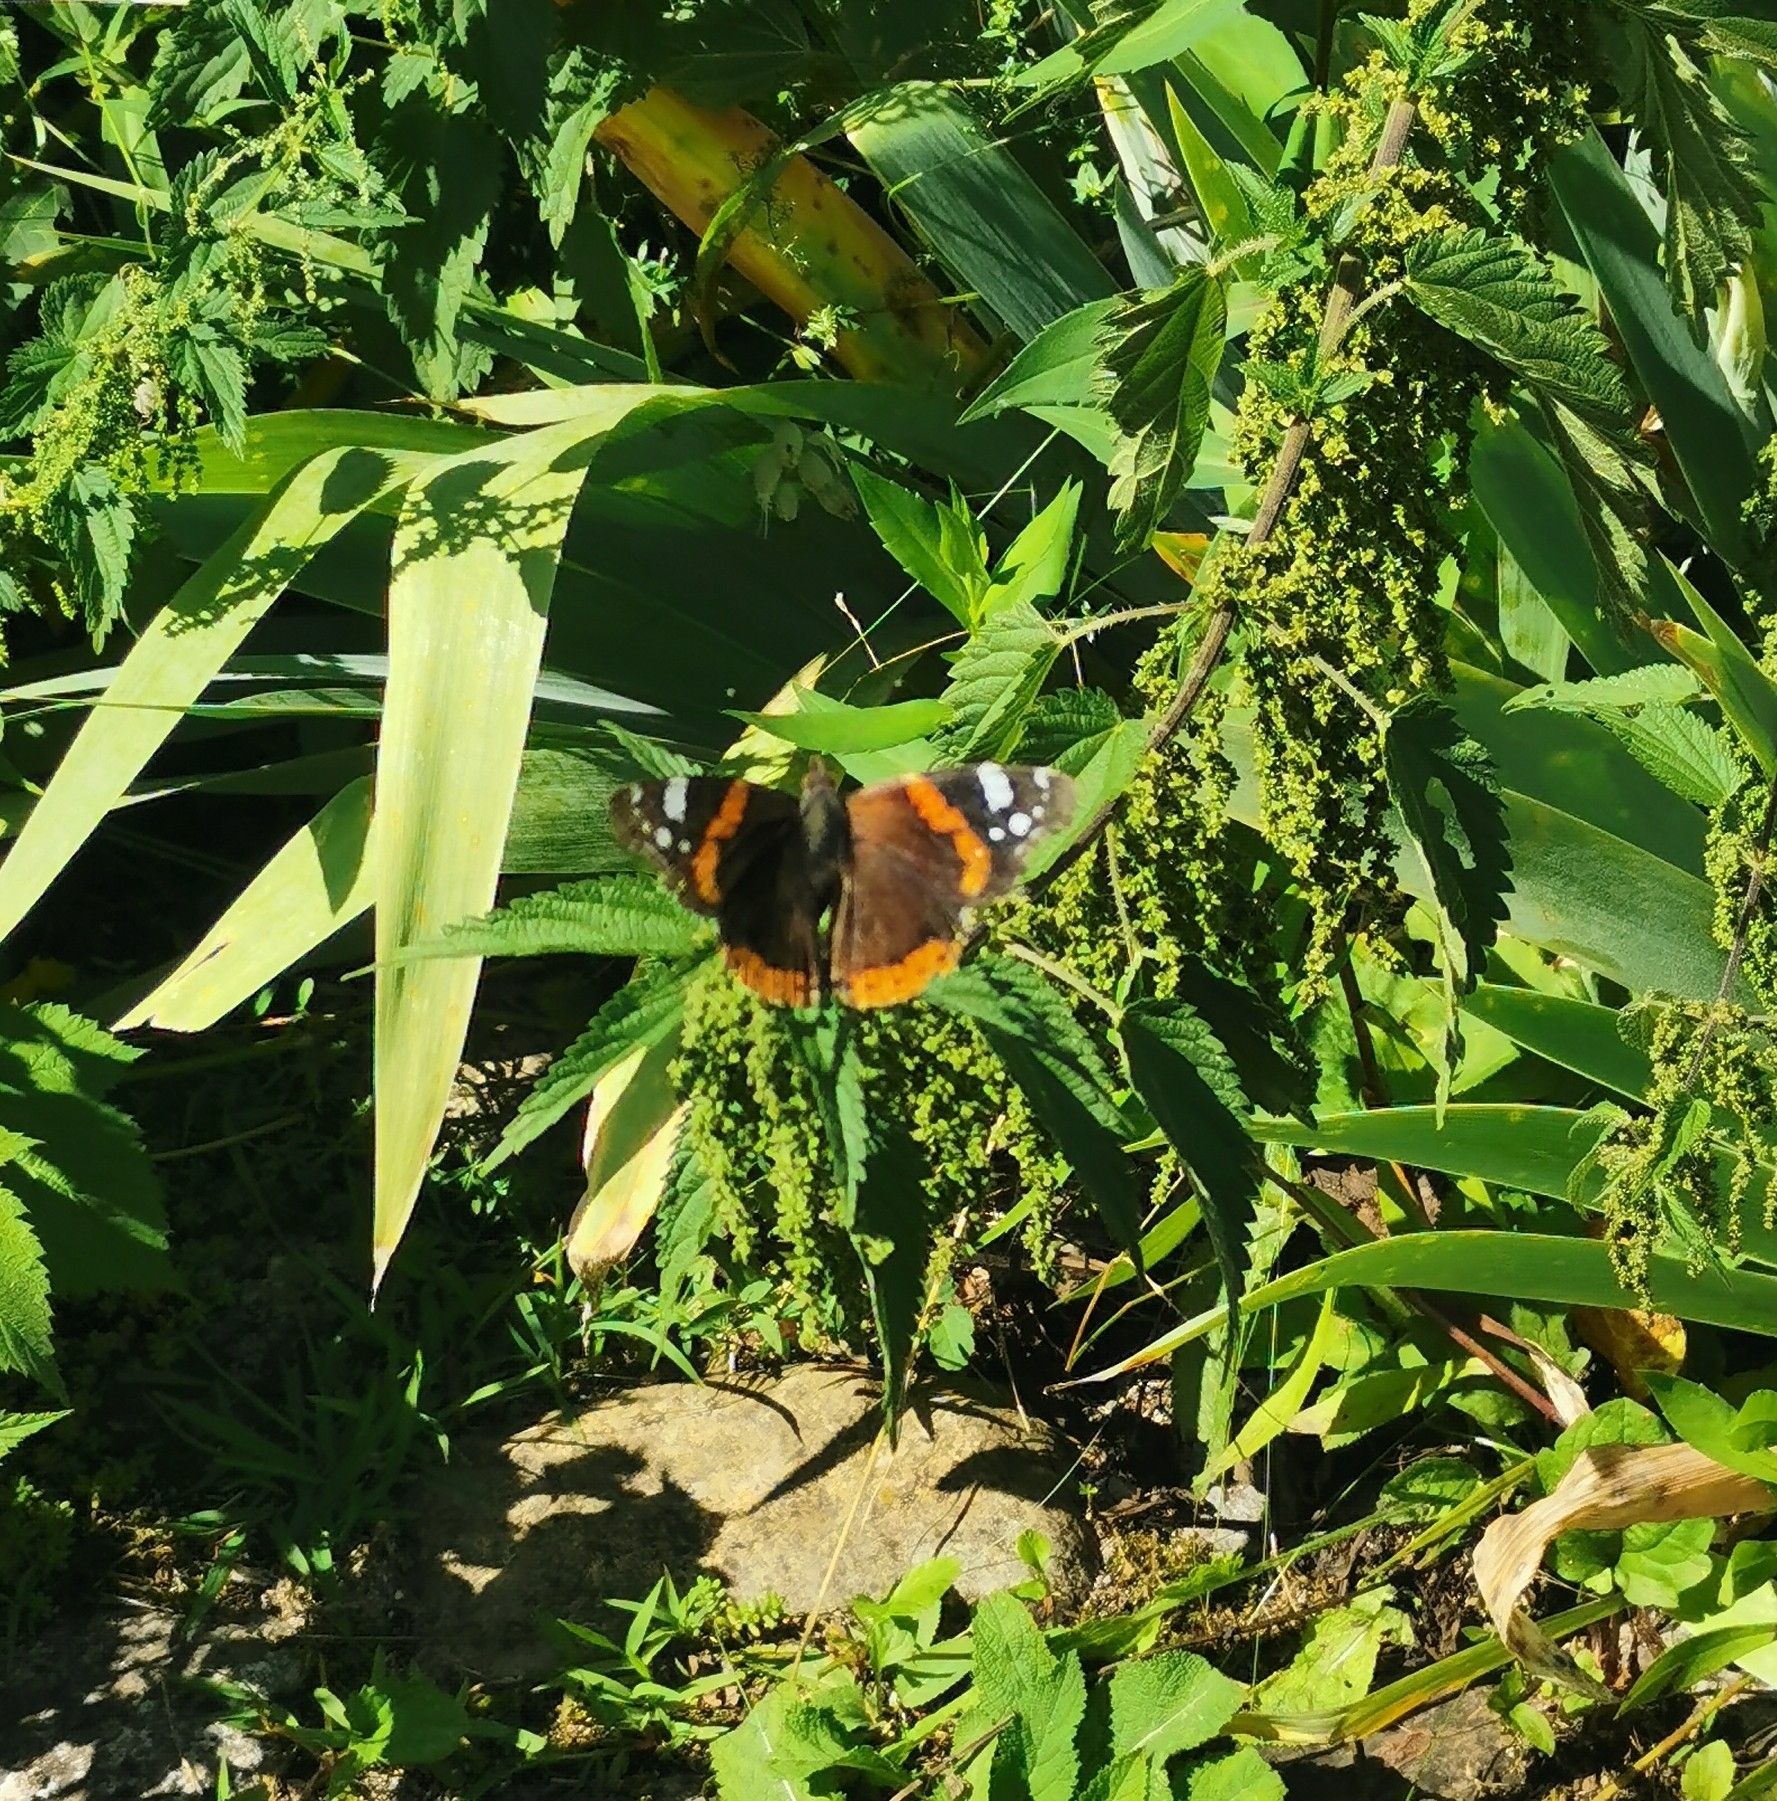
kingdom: Animalia
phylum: Arthropoda
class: Insecta
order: Lepidoptera
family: Nymphalidae
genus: Vanessa
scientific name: Vanessa atalanta
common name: Red admiral
